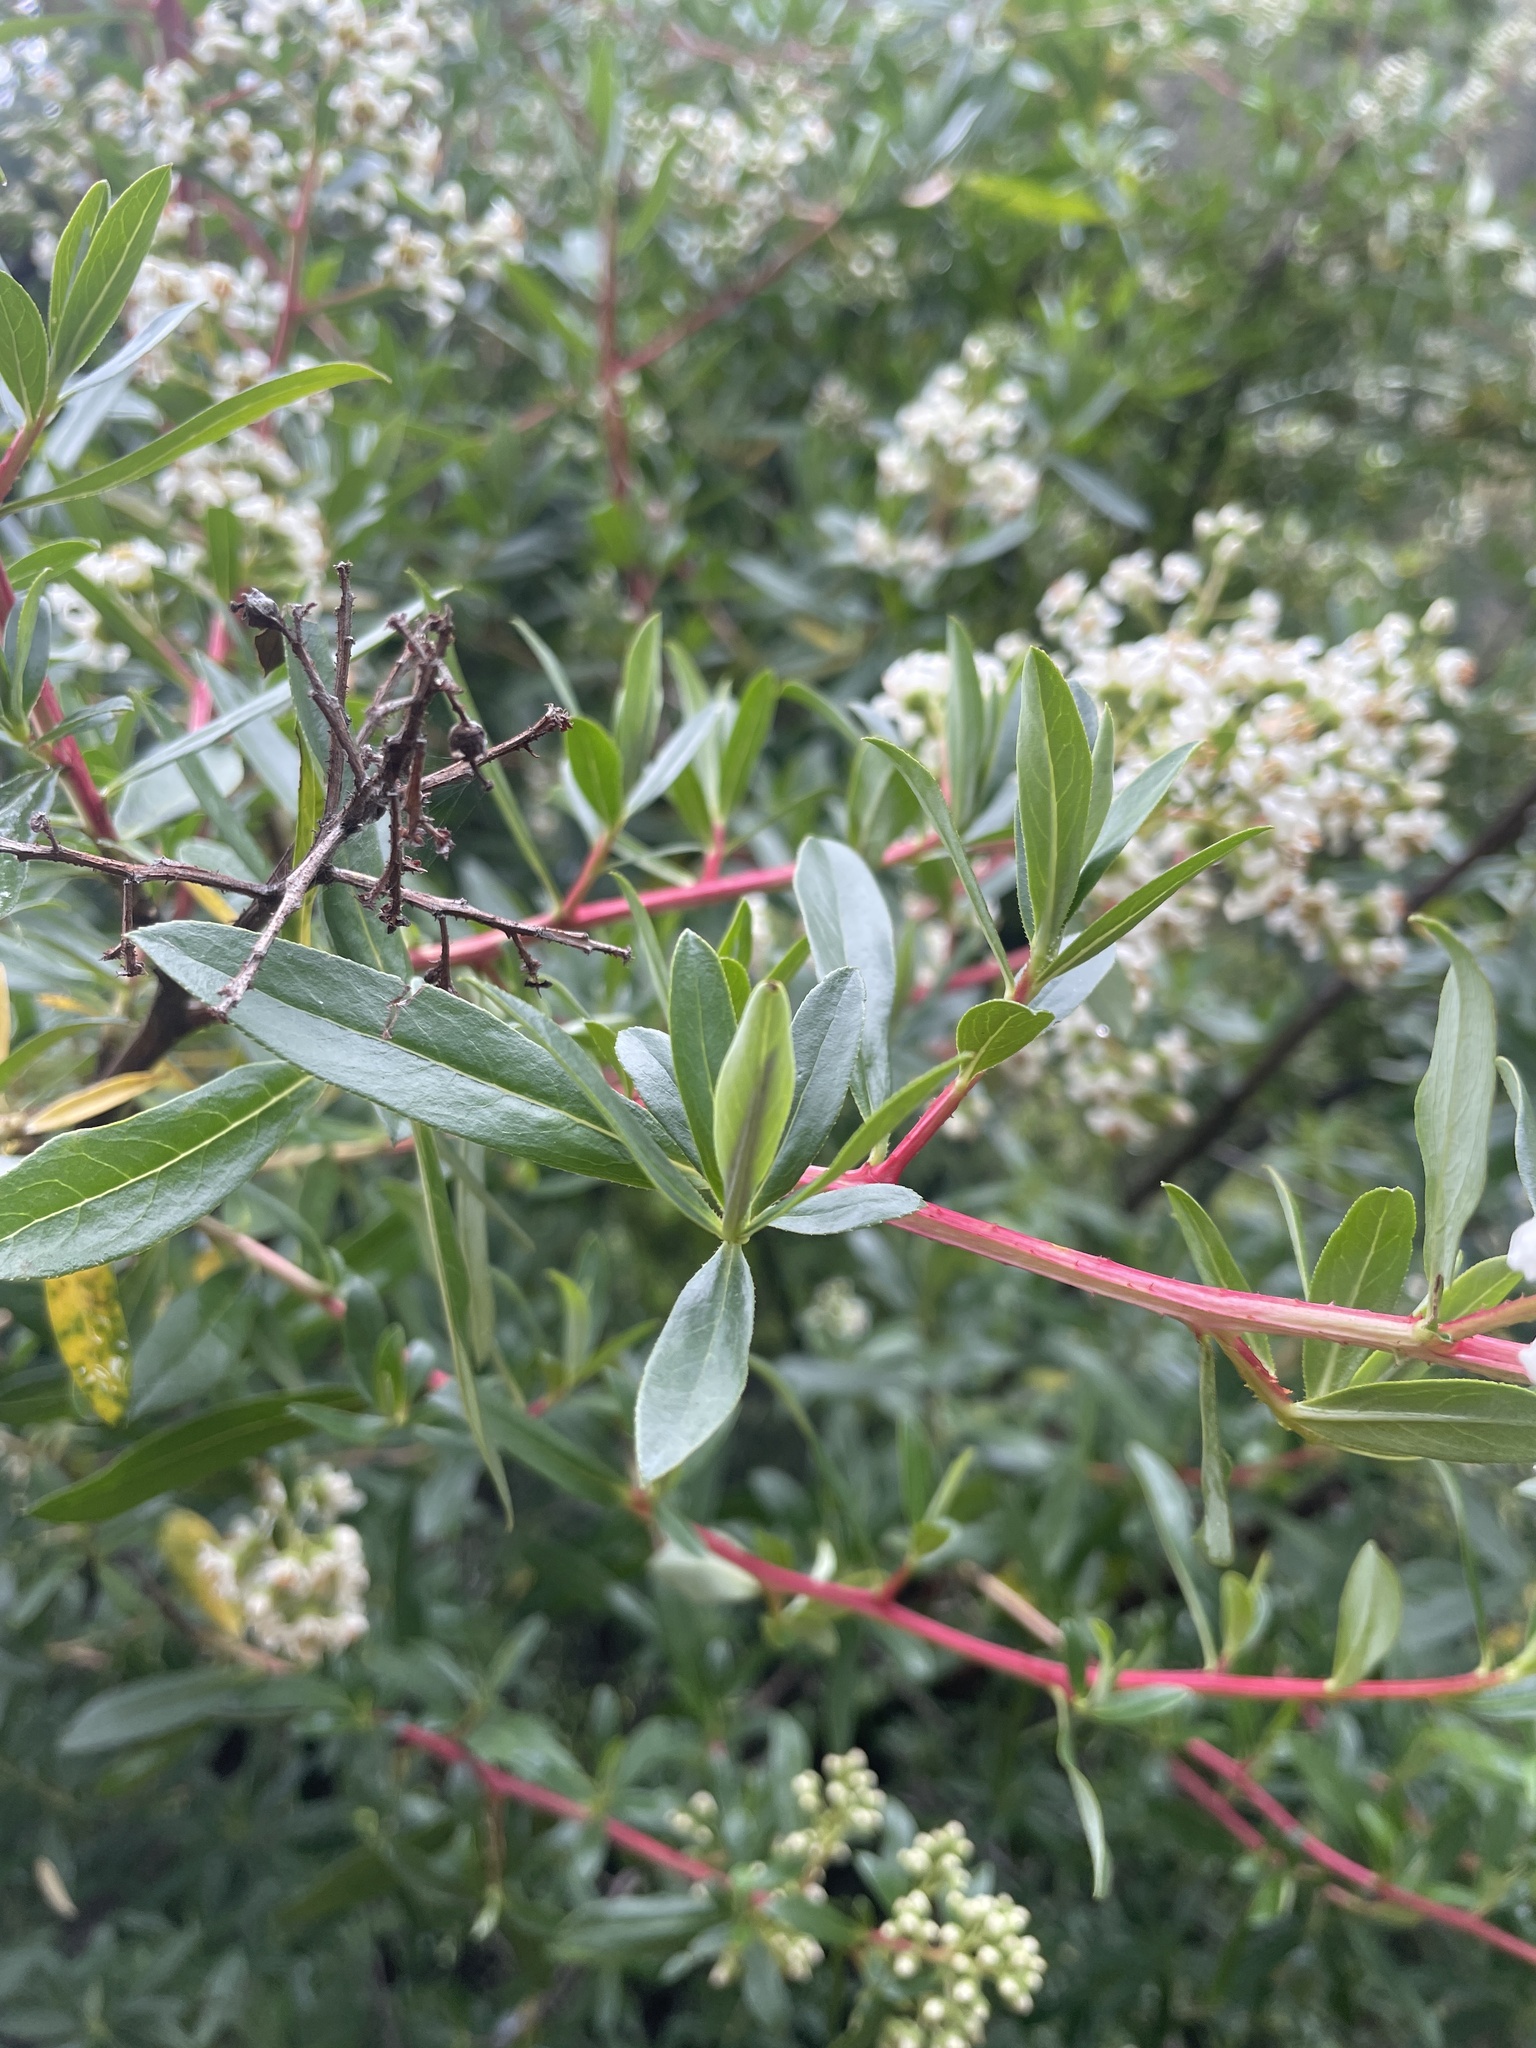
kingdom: Plantae
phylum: Tracheophyta
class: Magnoliopsida
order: Escalloniales
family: Escalloniaceae
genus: Escallonia
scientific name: Escallonia resinosa
